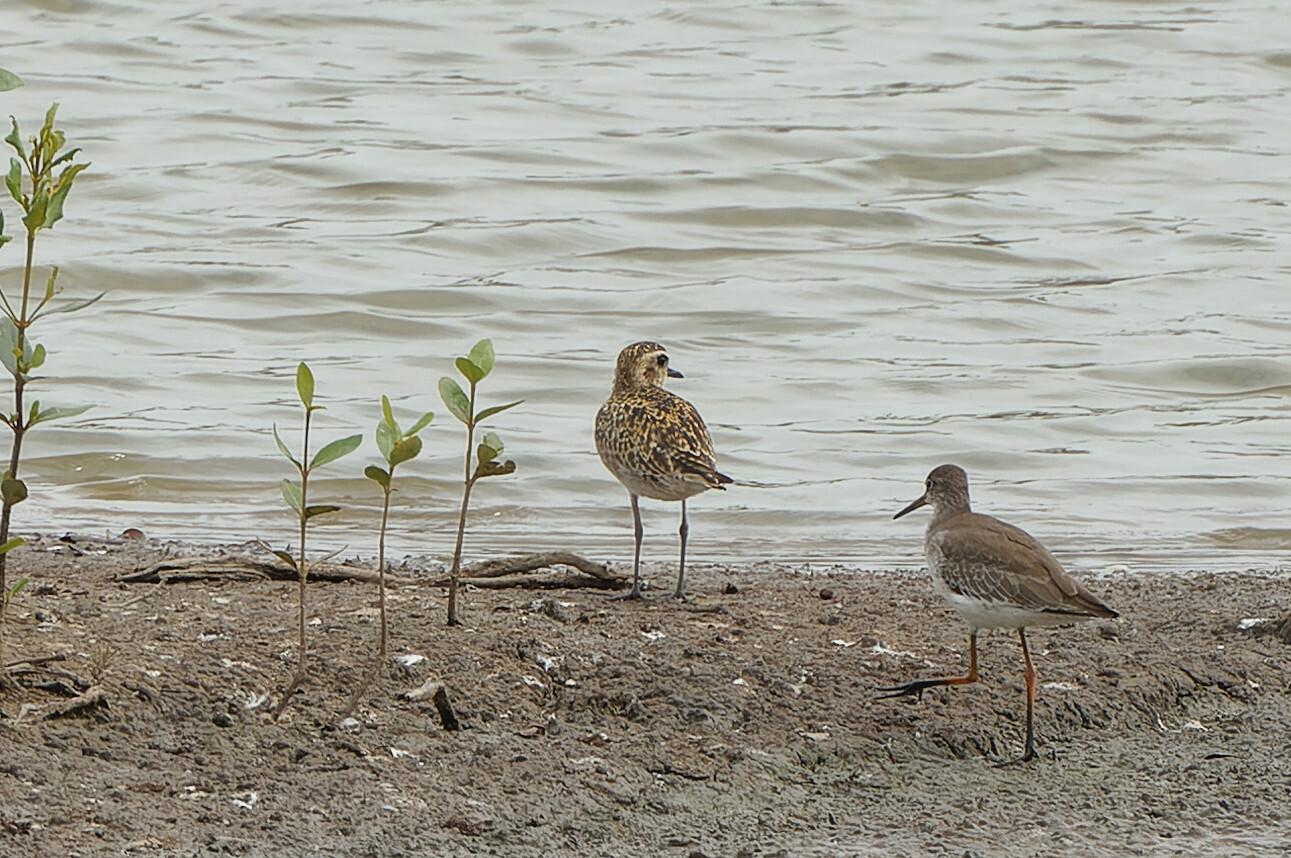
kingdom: Animalia
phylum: Chordata
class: Aves
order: Charadriiformes
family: Charadriidae
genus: Pluvialis
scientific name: Pluvialis fulva
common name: Pacific golden plover
